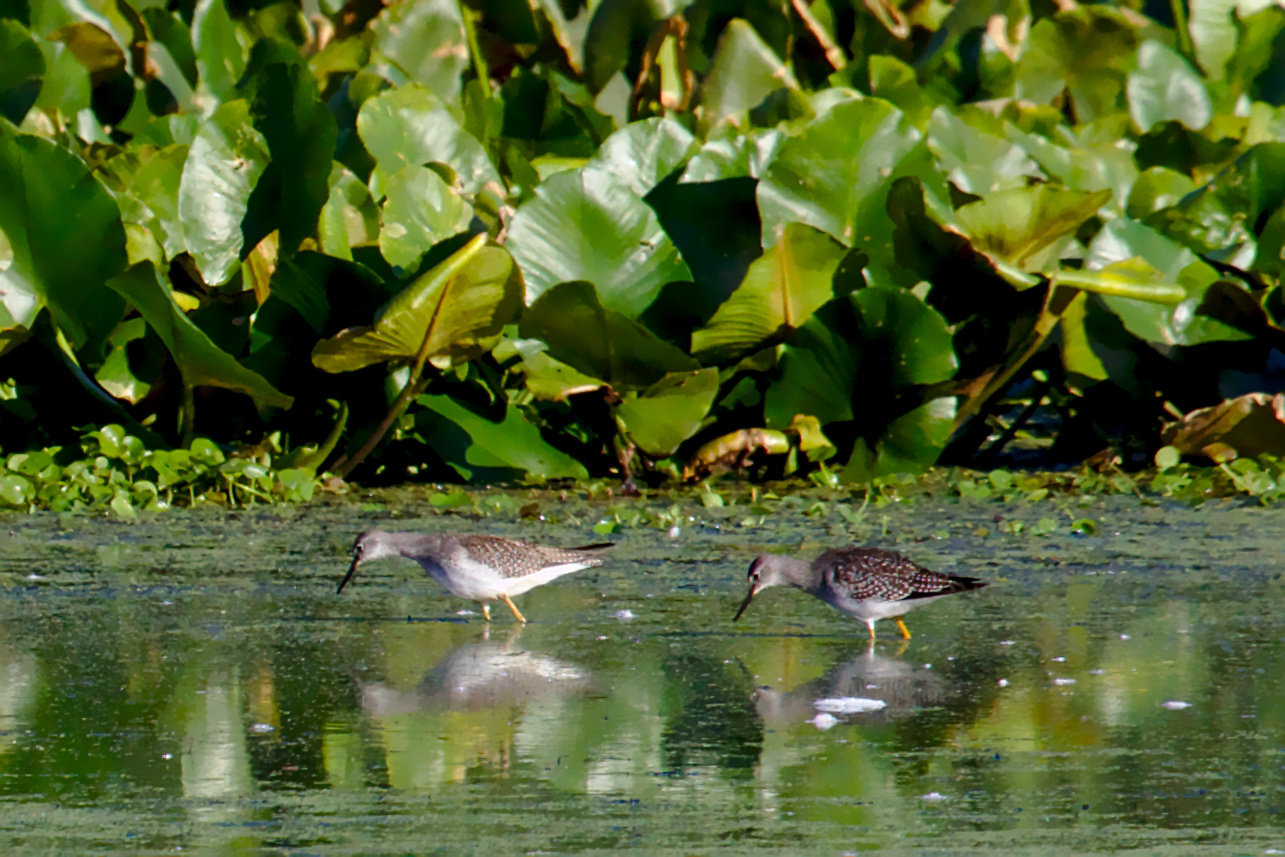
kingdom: Animalia
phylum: Chordata
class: Aves
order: Charadriiformes
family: Scolopacidae
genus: Tringa
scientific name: Tringa flavipes
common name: Lesser yellowlegs
